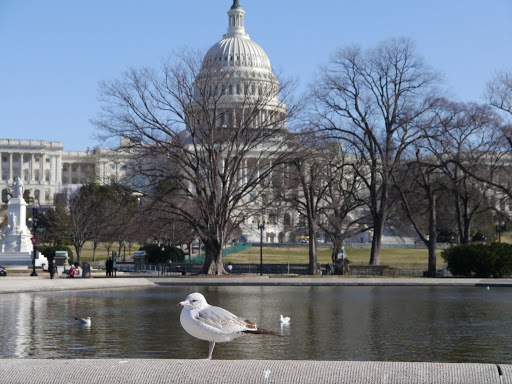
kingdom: Animalia
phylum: Chordata
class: Aves
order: Charadriiformes
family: Laridae
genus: Larus
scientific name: Larus delawarensis
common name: Ring-billed gull
